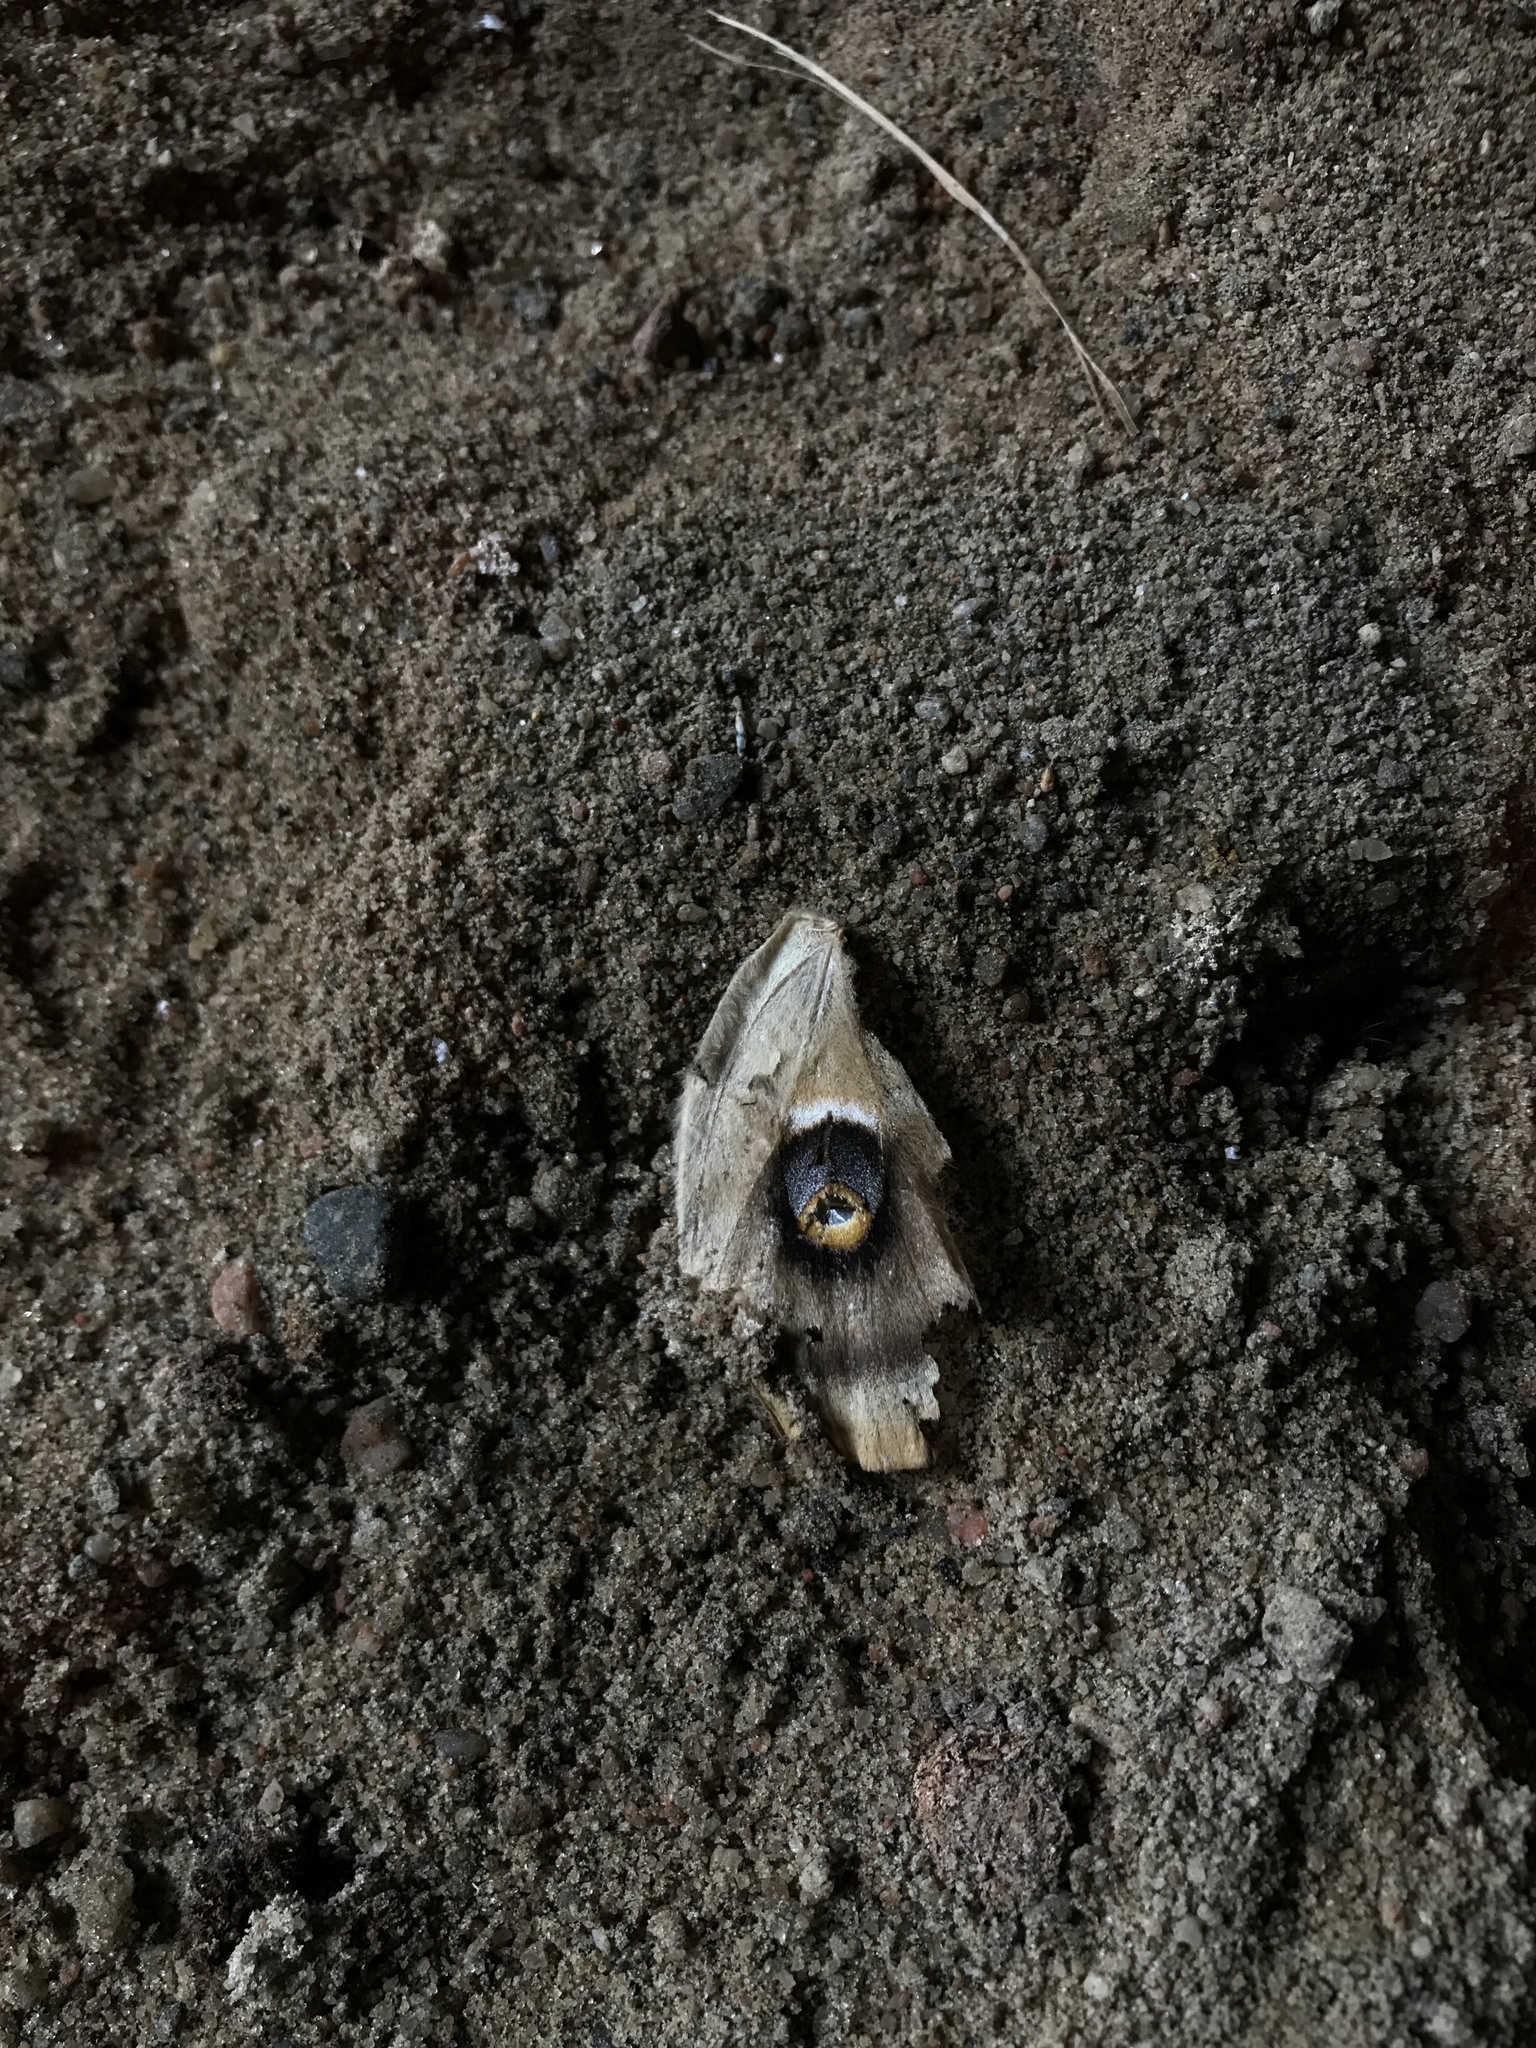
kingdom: Animalia
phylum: Arthropoda
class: Insecta
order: Lepidoptera
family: Saturniidae
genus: Antheraea
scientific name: Antheraea polyphemus
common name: Polyphemus moth
